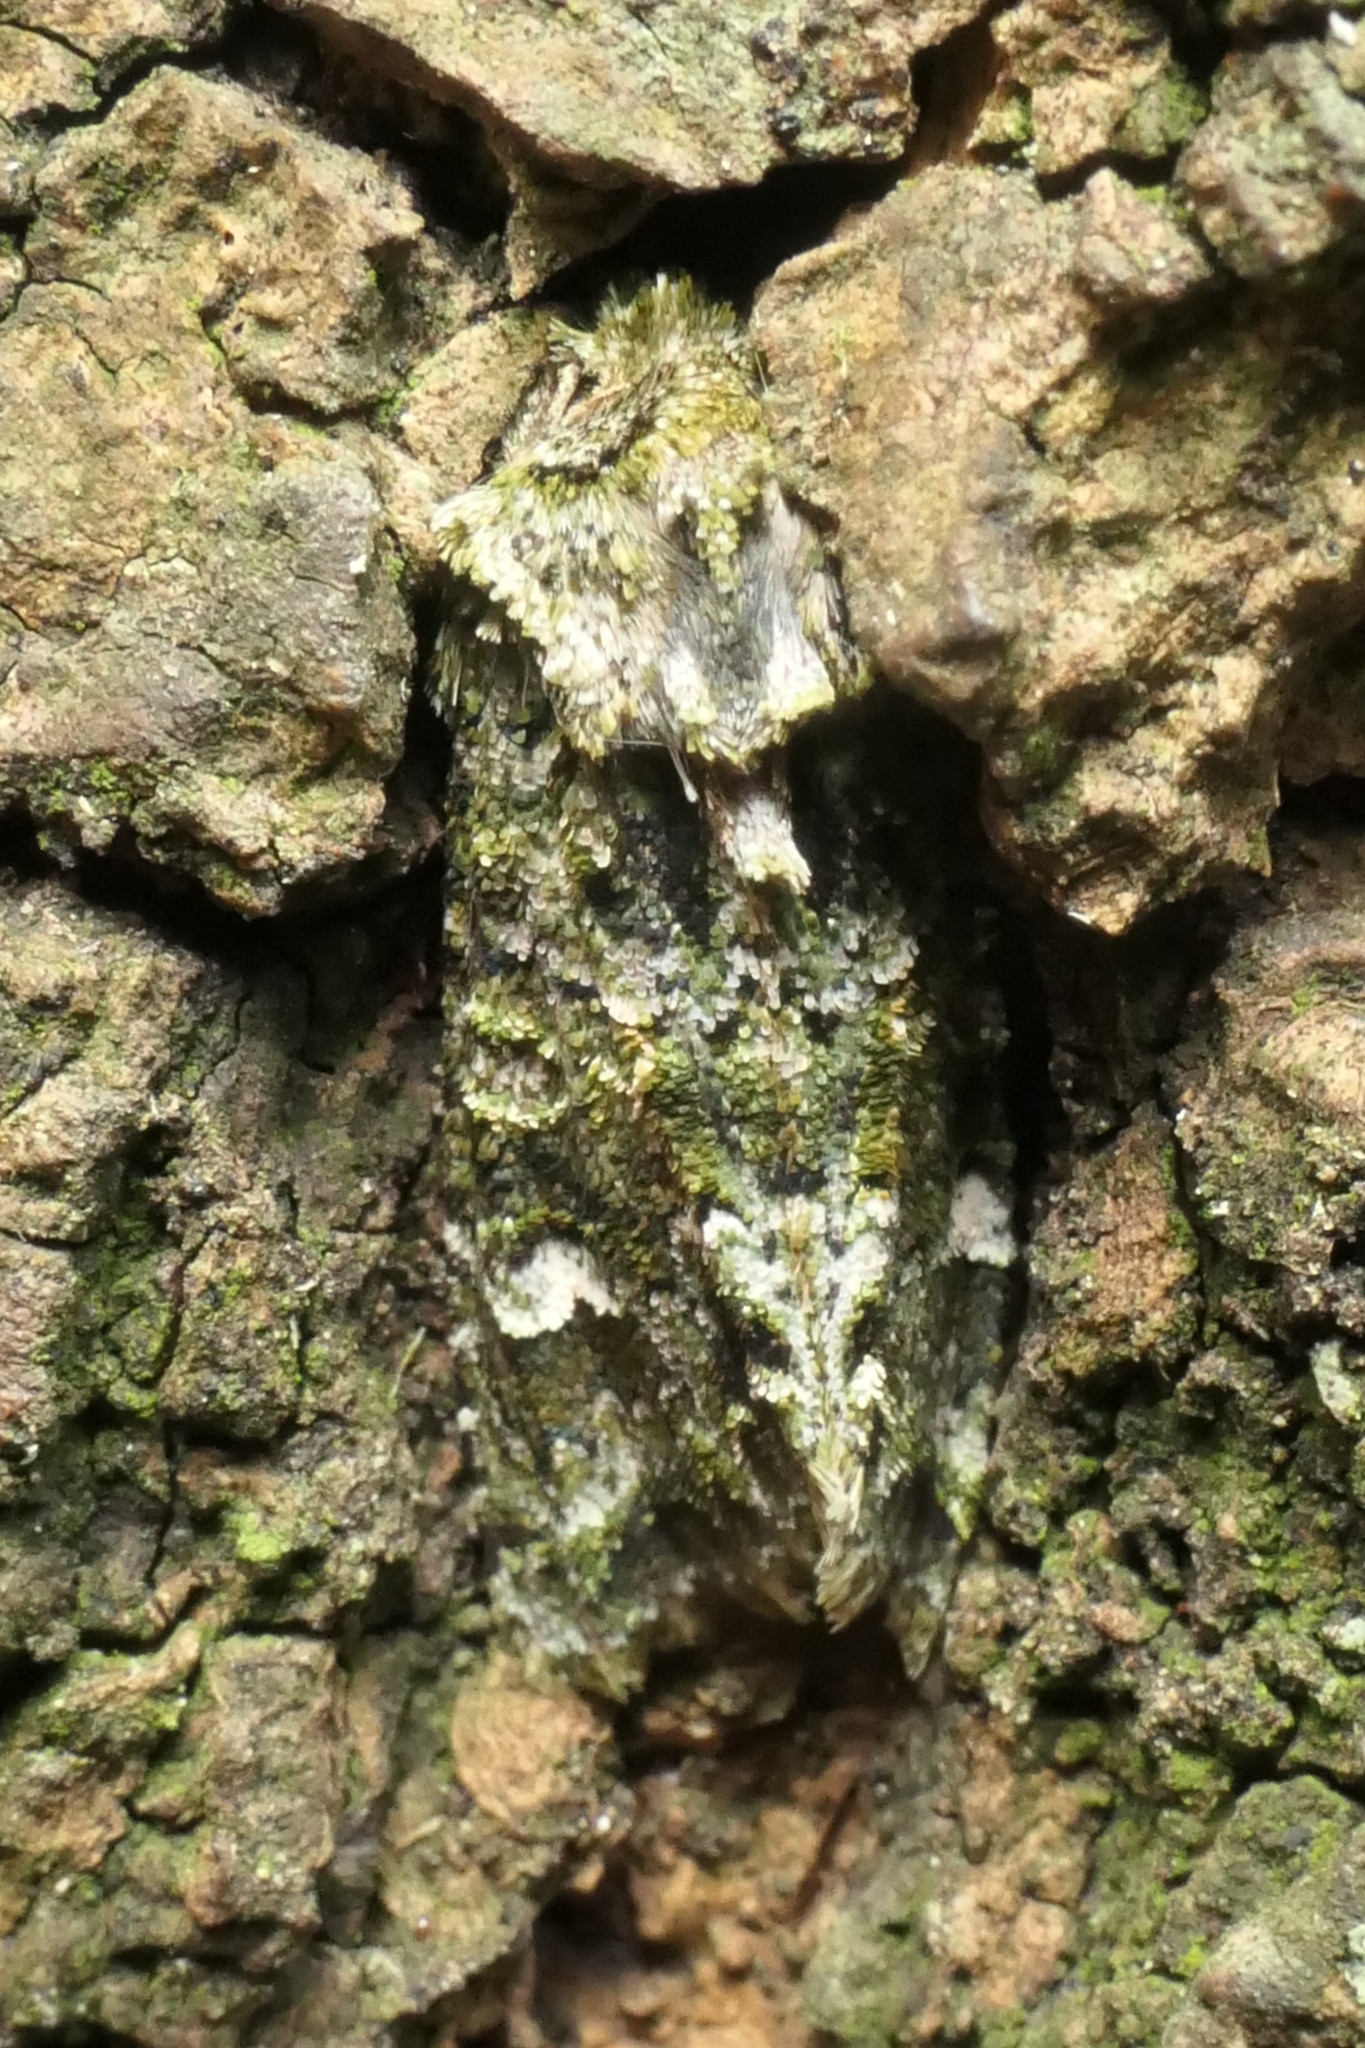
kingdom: Animalia
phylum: Arthropoda
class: Insecta
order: Lepidoptera
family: Noctuidae
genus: Ichneutica
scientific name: Ichneutica
